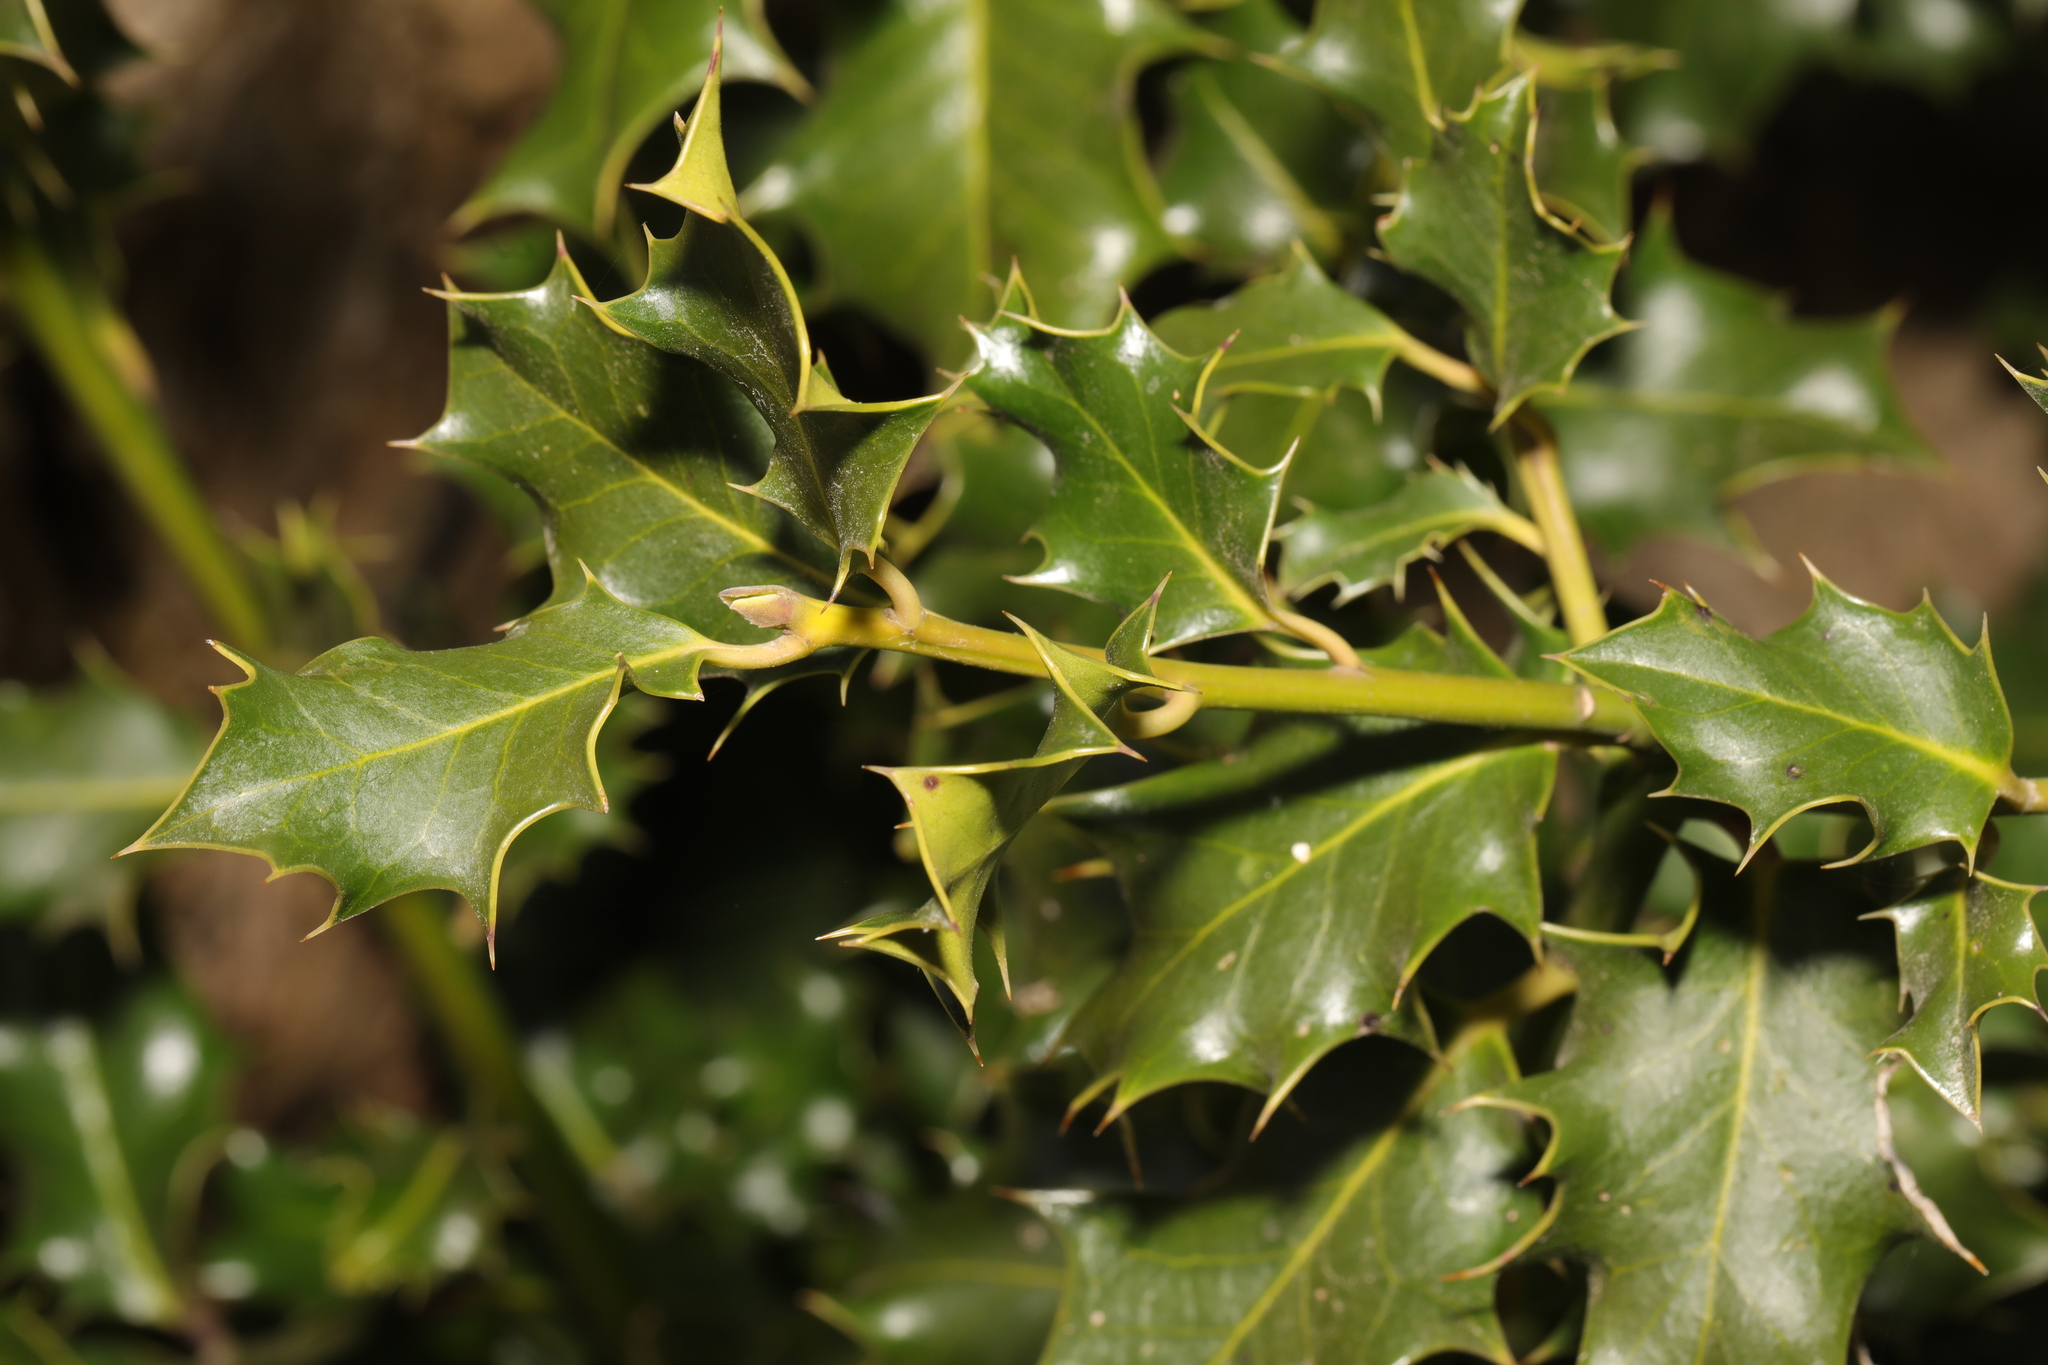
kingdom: Plantae
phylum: Tracheophyta
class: Magnoliopsida
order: Aquifoliales
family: Aquifoliaceae
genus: Ilex
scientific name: Ilex aquifolium
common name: English holly
